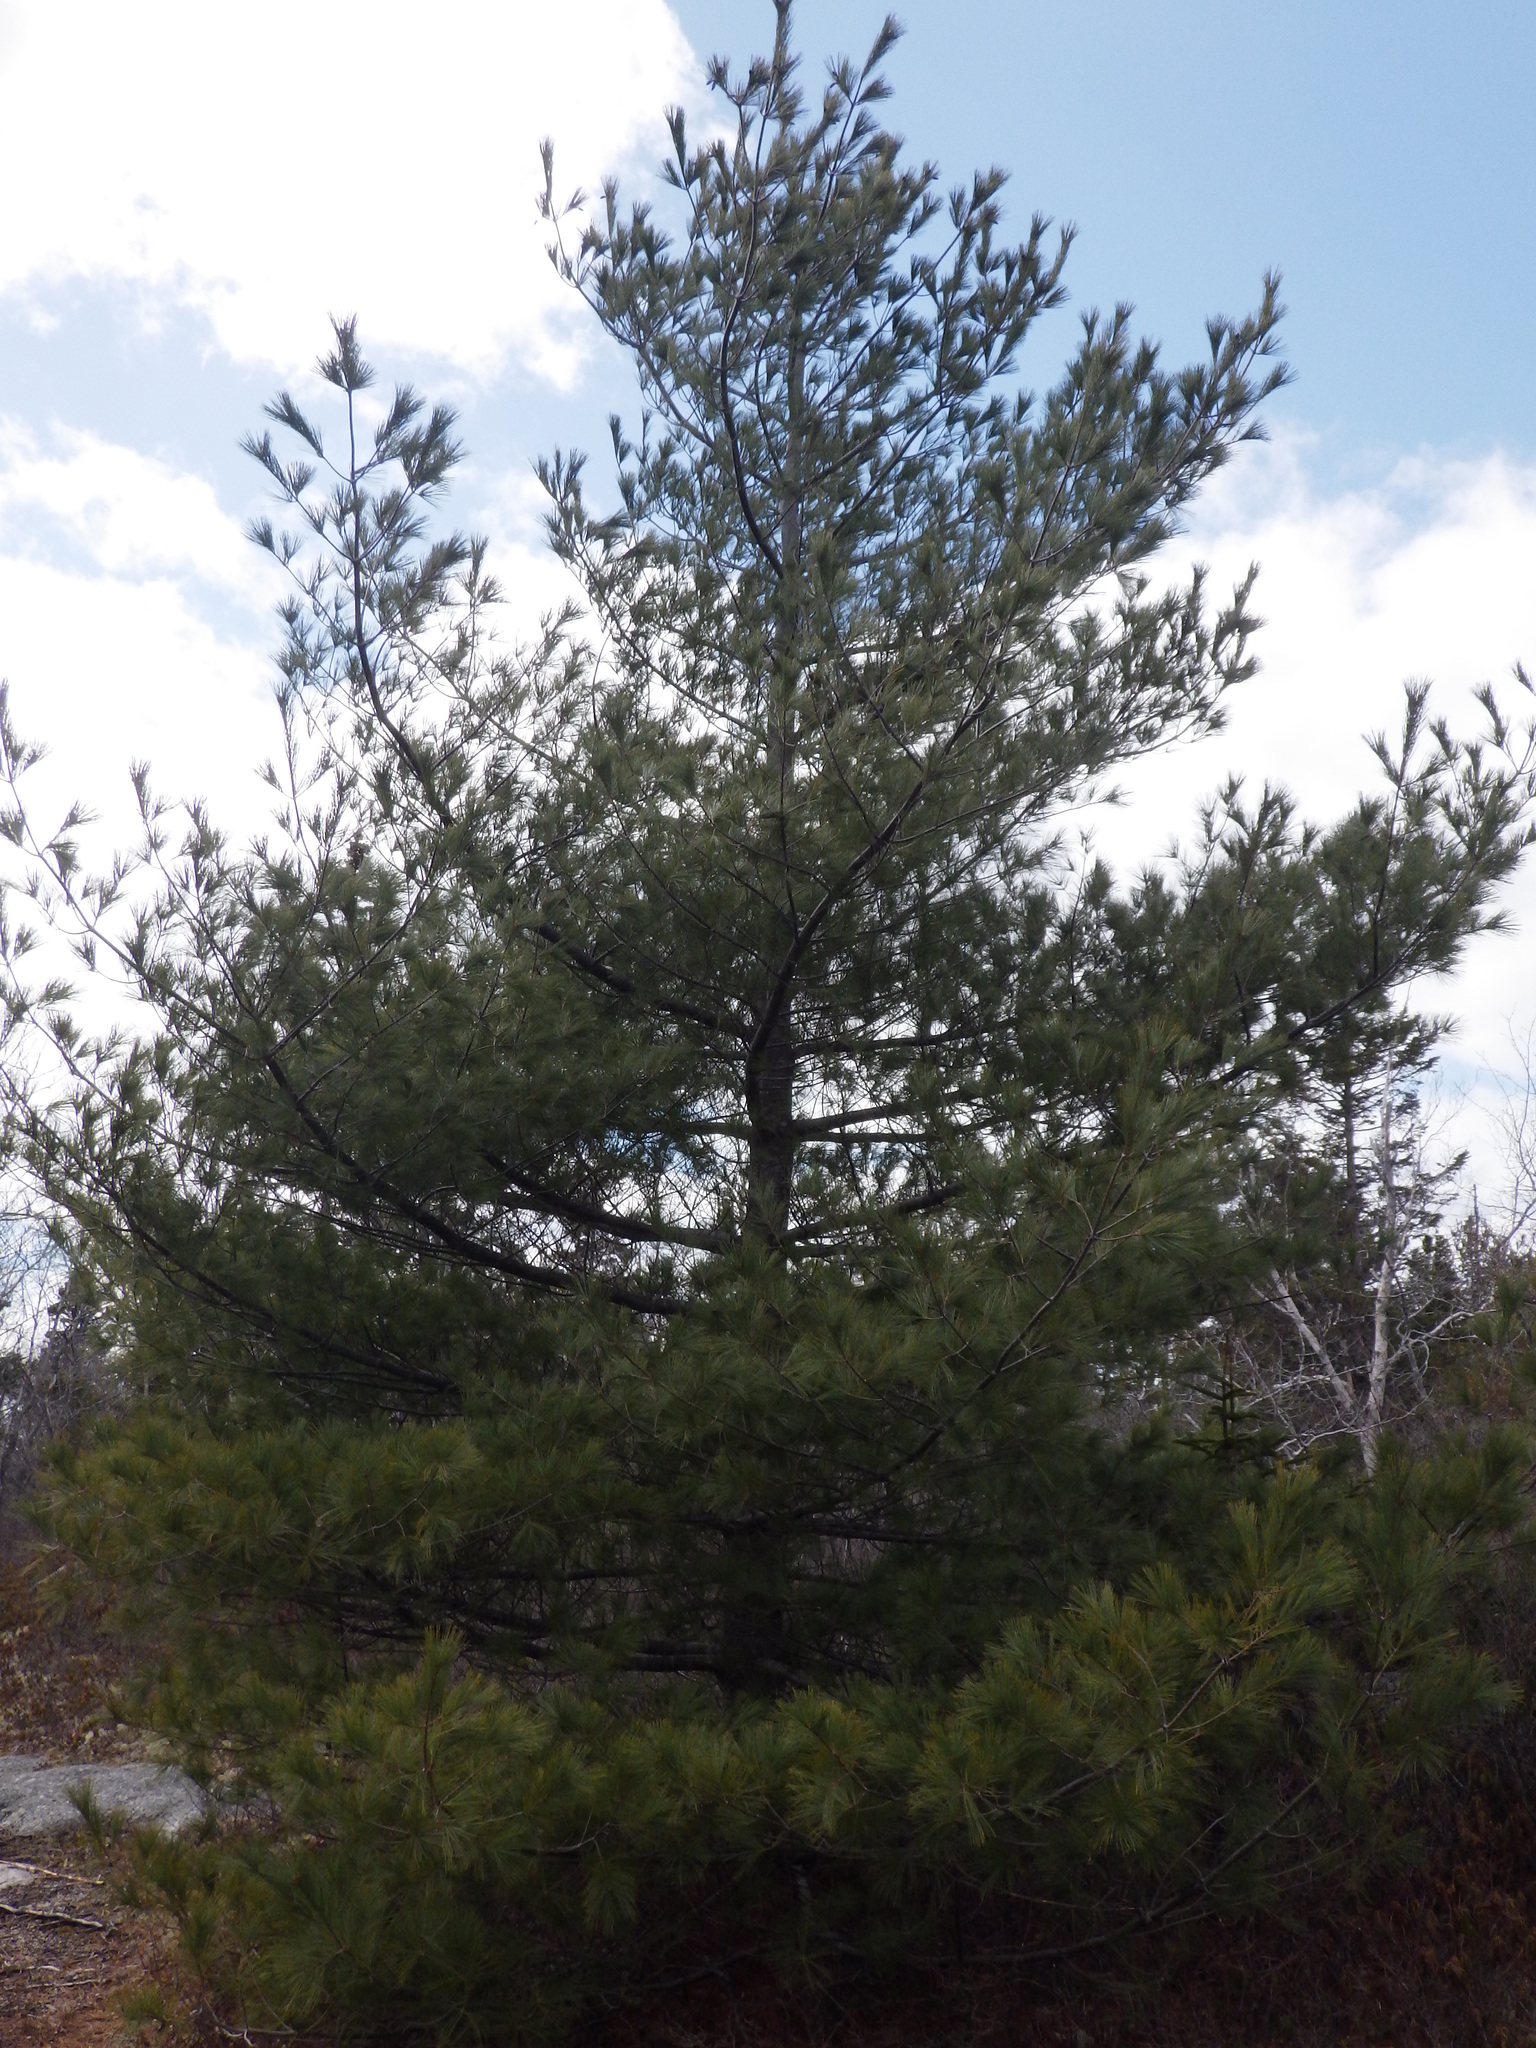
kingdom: Plantae
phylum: Tracheophyta
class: Pinopsida
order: Pinales
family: Pinaceae
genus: Pinus
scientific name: Pinus strobus
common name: Weymouth pine
